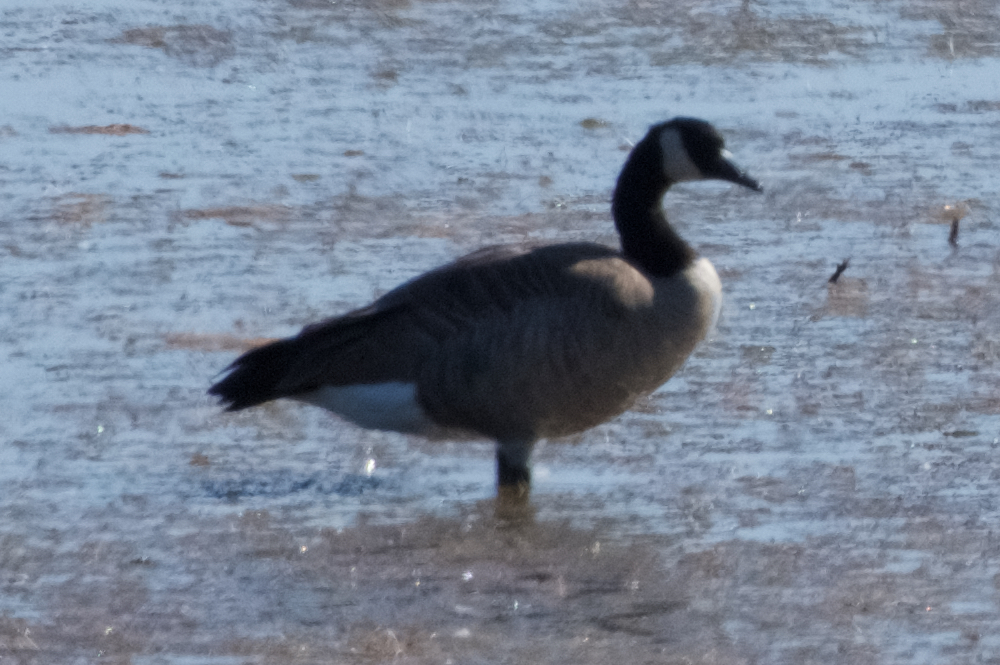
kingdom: Animalia
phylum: Chordata
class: Aves
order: Anseriformes
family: Anatidae
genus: Branta
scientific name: Branta canadensis
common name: Canada goose
